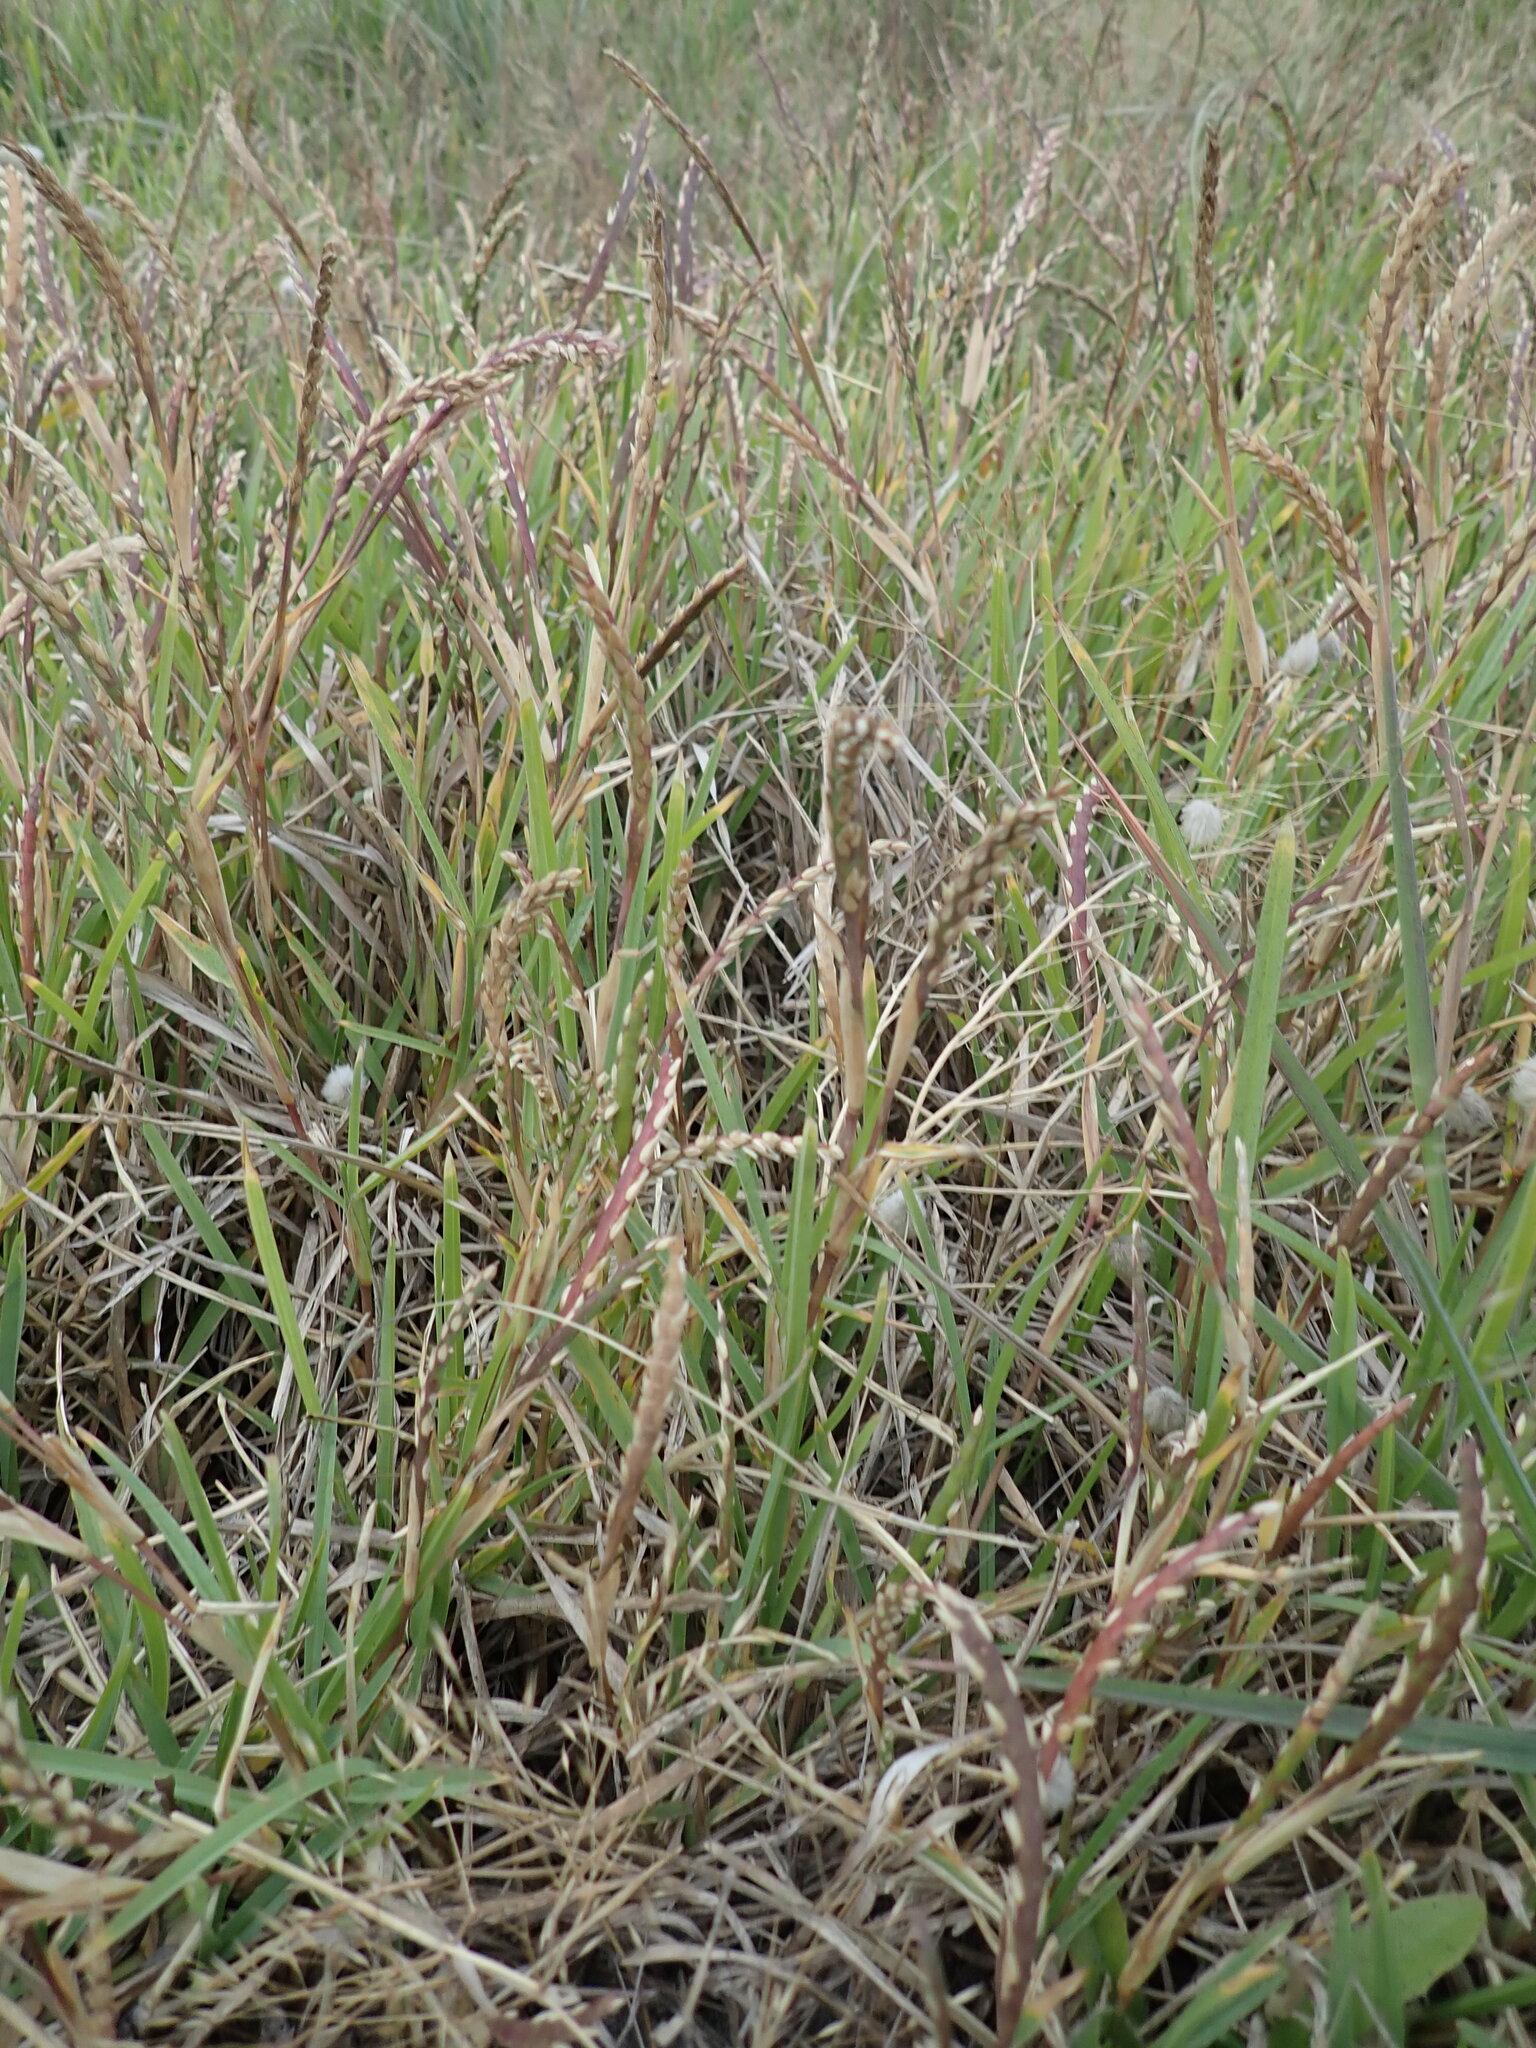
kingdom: Plantae
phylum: Tracheophyta
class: Liliopsida
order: Poales
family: Poaceae
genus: Stenotaphrum
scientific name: Stenotaphrum secundatum
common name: St. augustine grass
